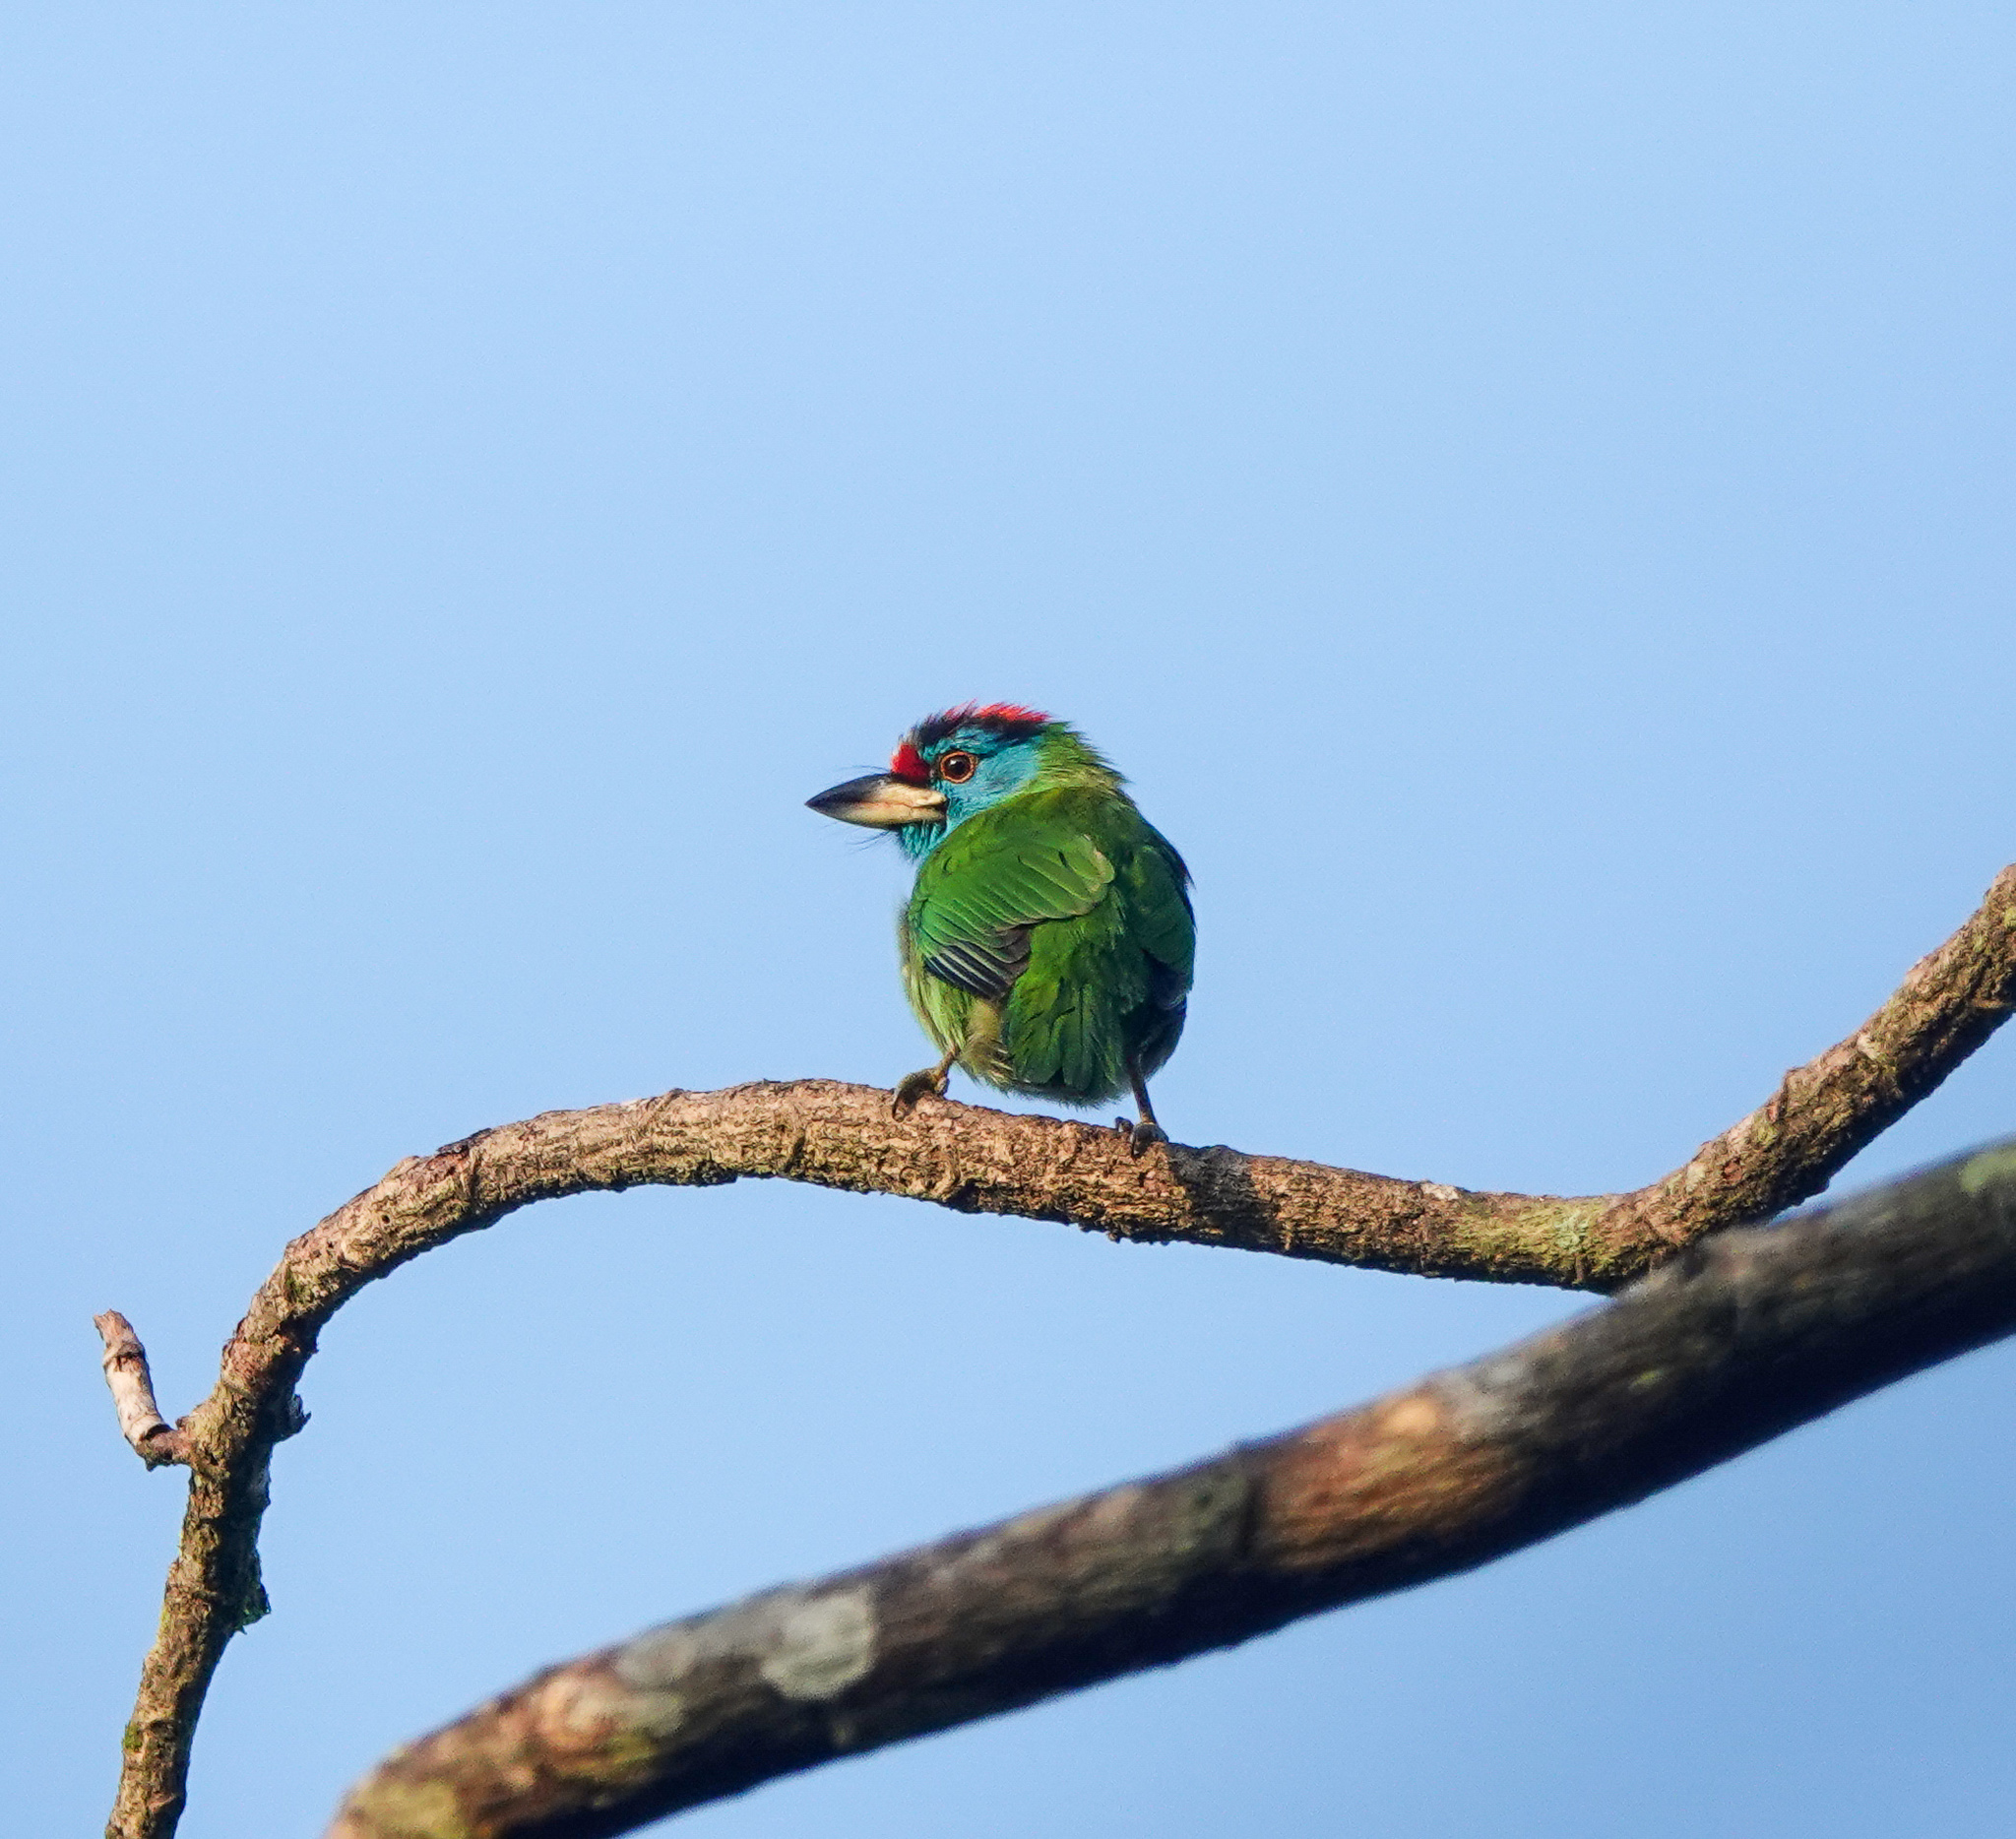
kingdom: Animalia
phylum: Chordata
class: Aves
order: Piciformes
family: Megalaimidae
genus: Psilopogon
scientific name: Psilopogon asiaticus
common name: Blue-throated barbet
